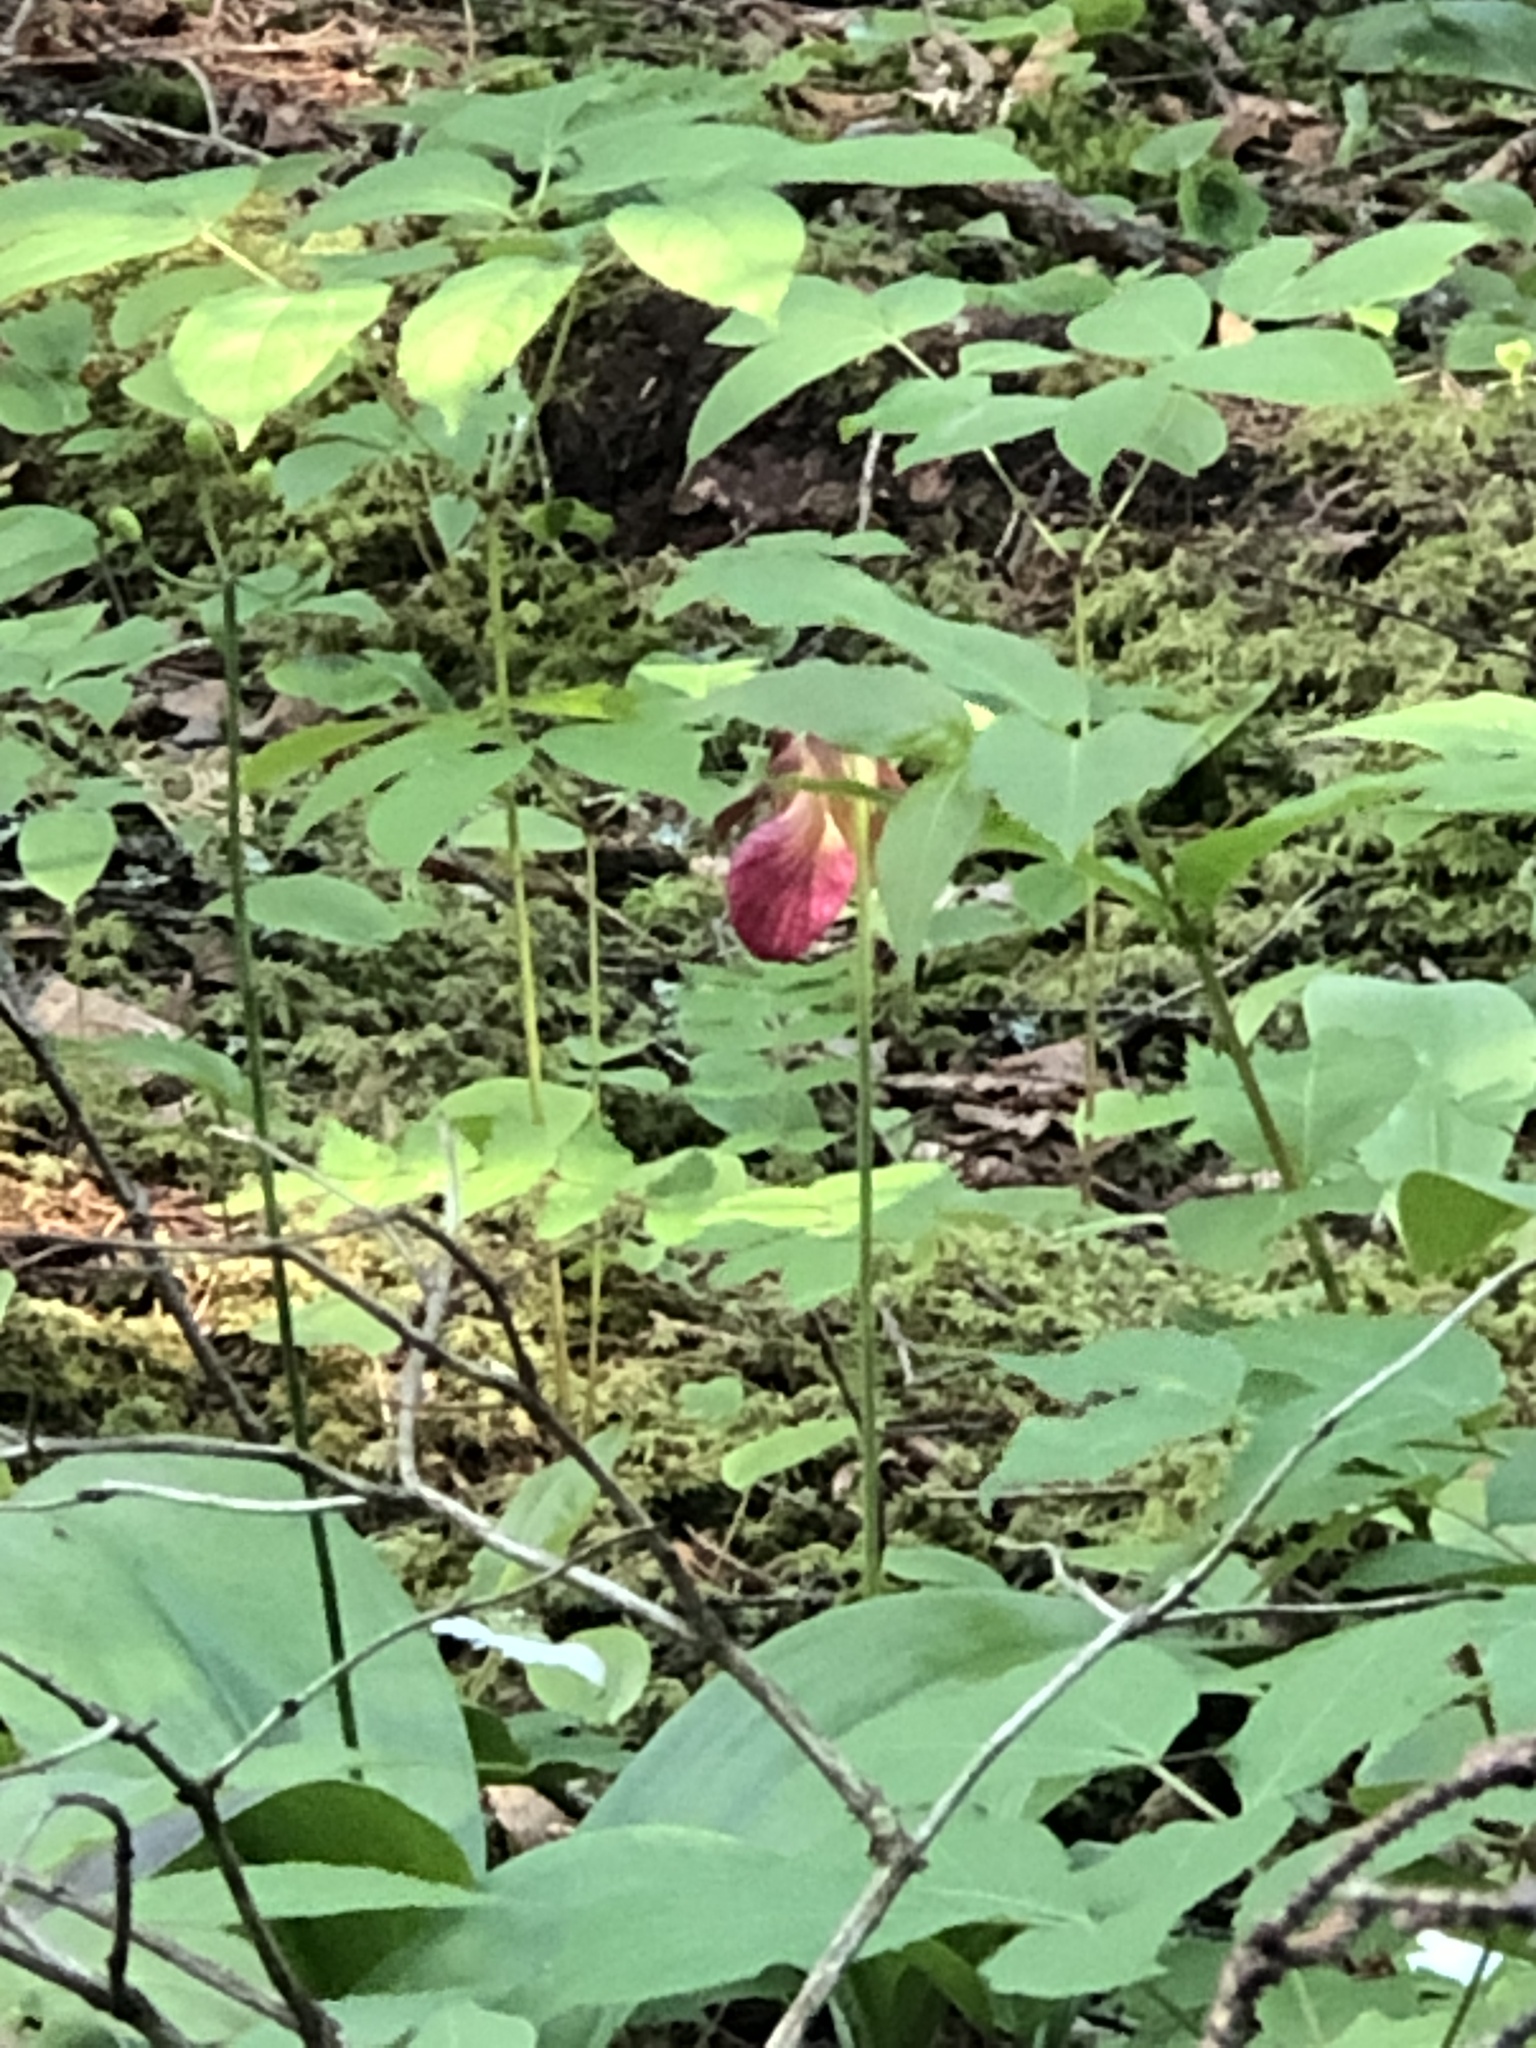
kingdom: Plantae
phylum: Tracheophyta
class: Liliopsida
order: Asparagales
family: Orchidaceae
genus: Cypripedium
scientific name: Cypripedium acaule
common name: Pink lady's-slipper
